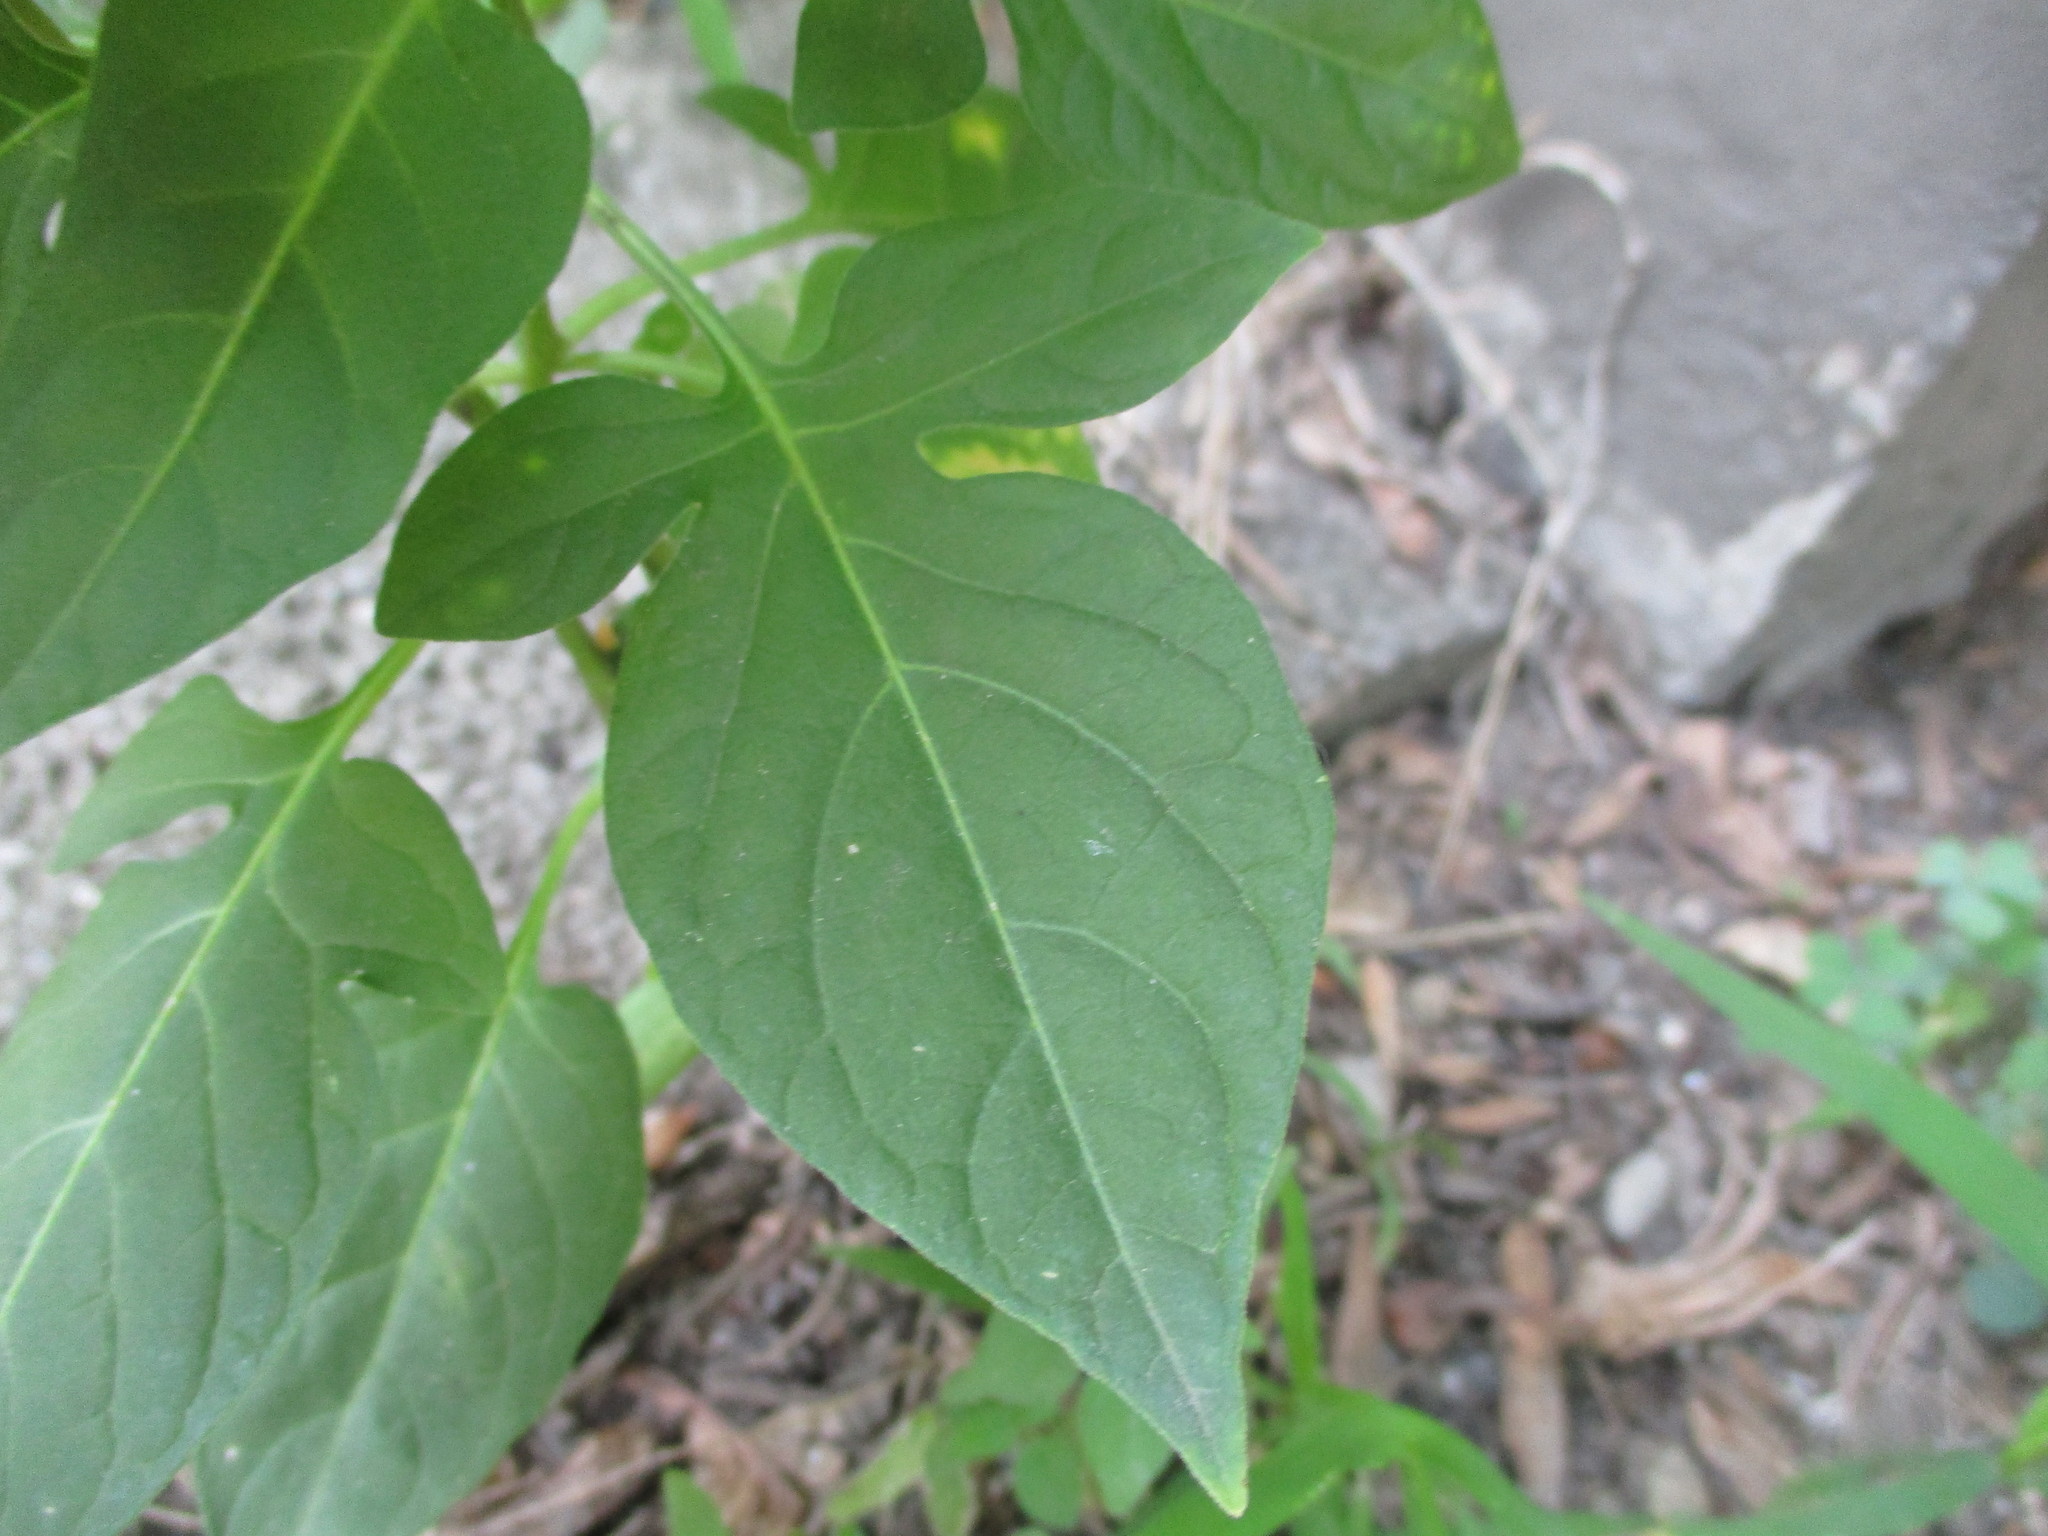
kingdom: Plantae
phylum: Tracheophyta
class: Magnoliopsida
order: Solanales
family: Solanaceae
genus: Solanum
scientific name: Solanum dulcamara
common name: Climbing nightshade
